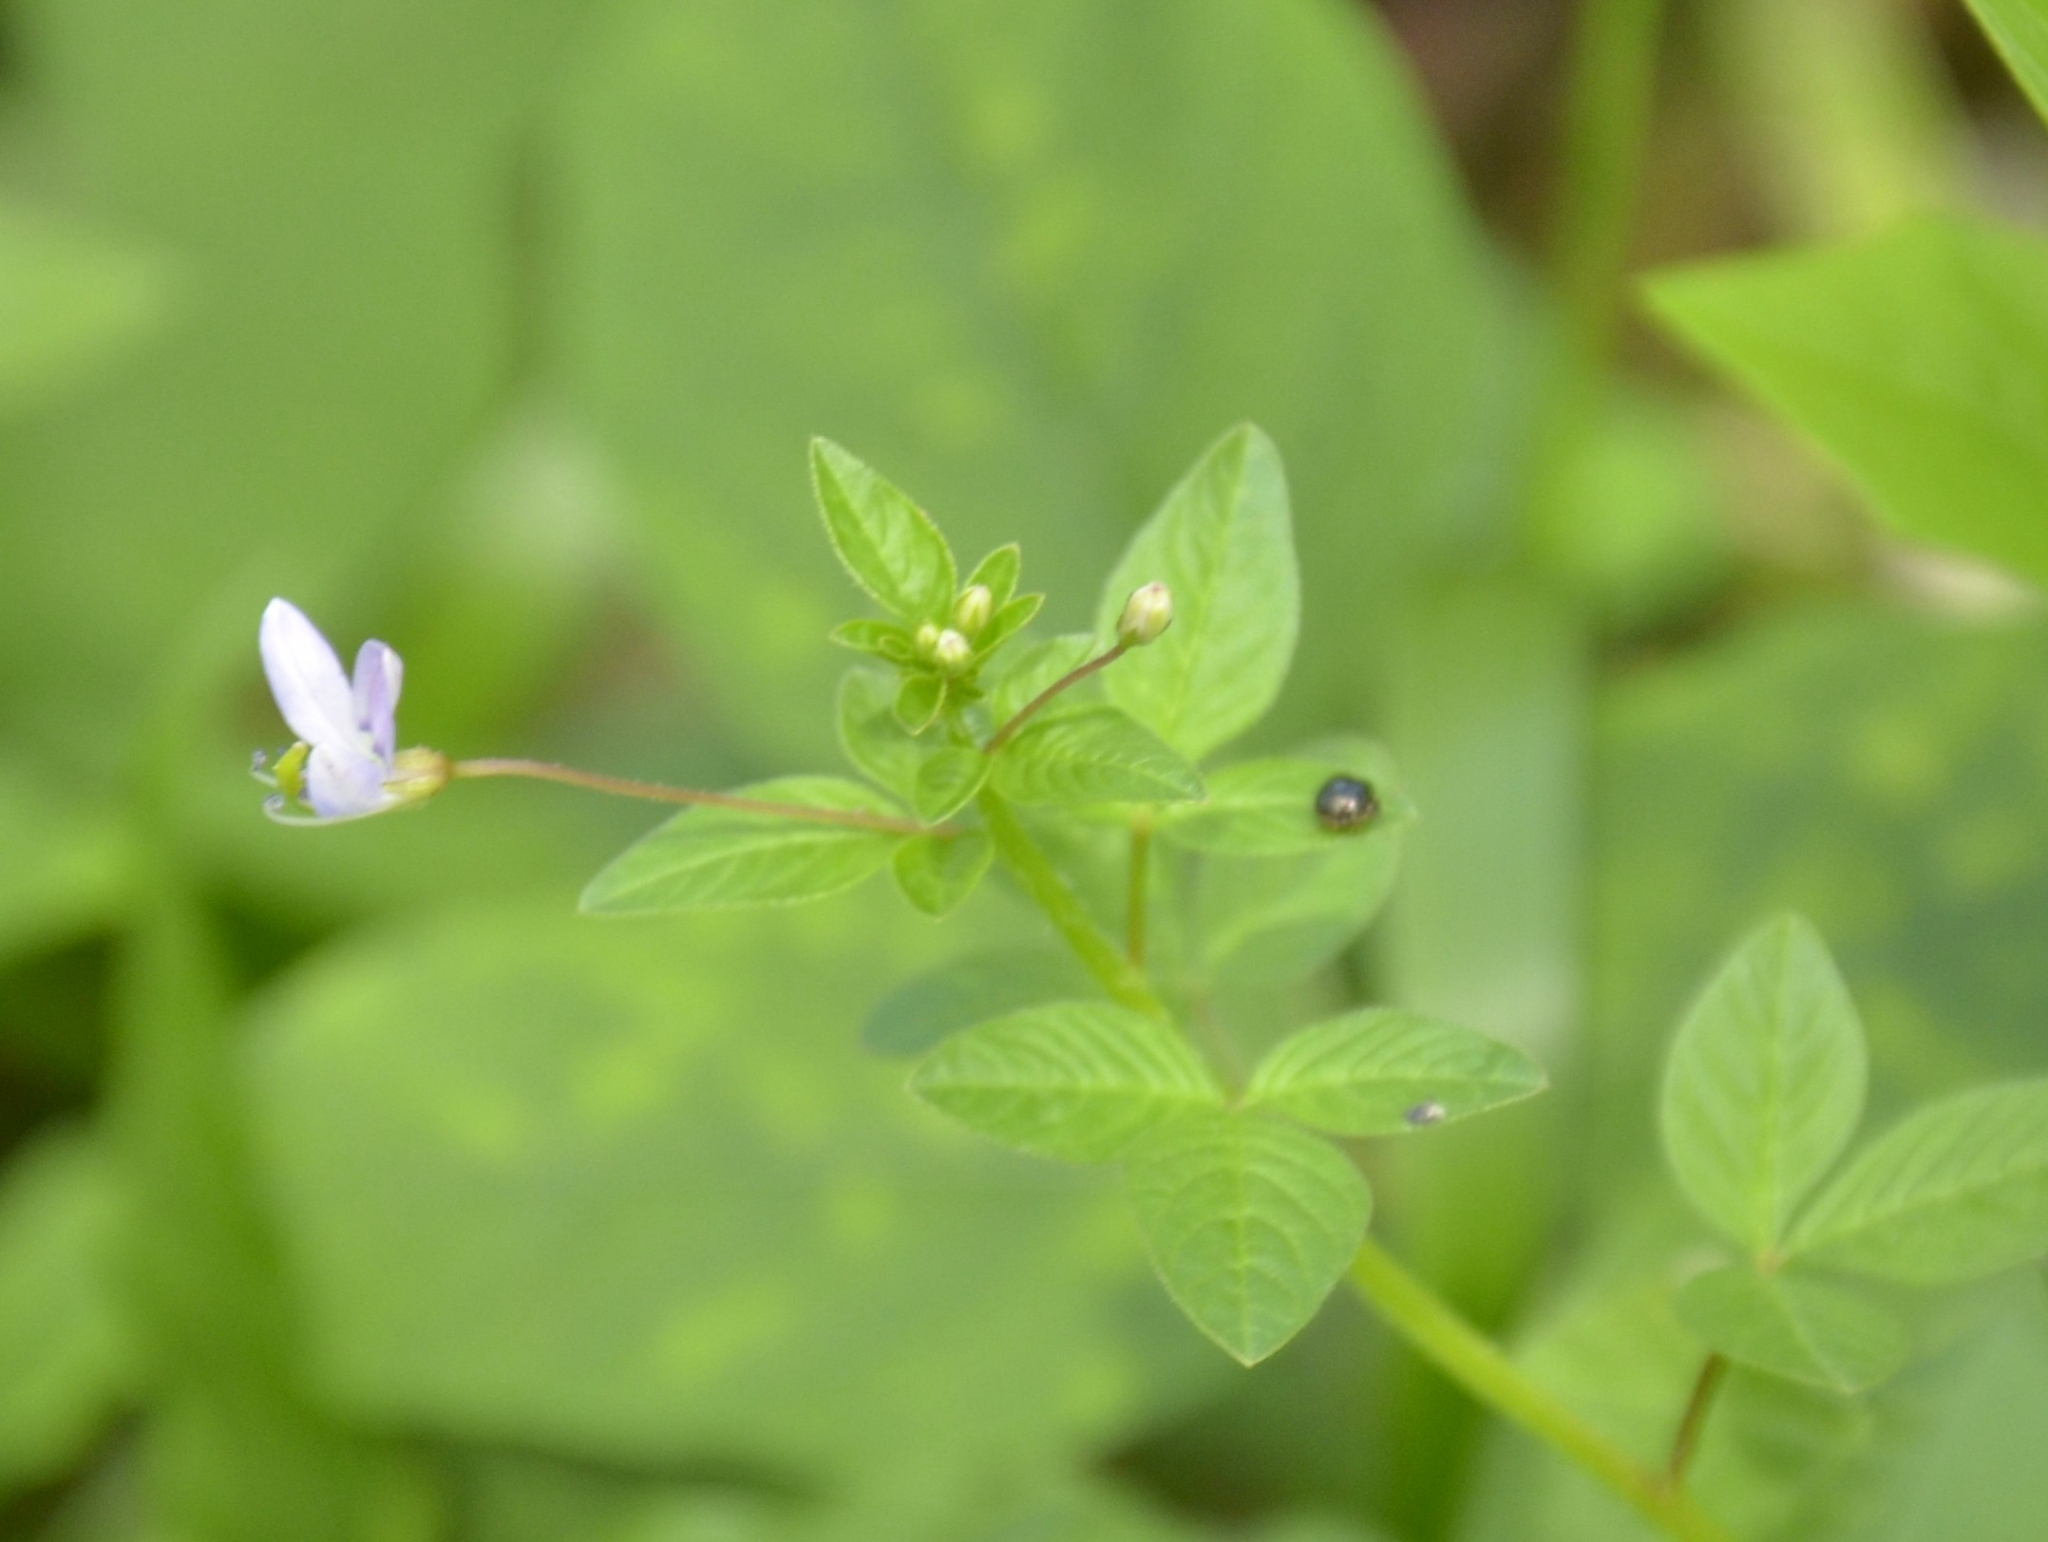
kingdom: Plantae
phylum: Tracheophyta
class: Magnoliopsida
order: Brassicales
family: Cleomaceae
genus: Sieruela
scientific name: Sieruela rutidosperma
